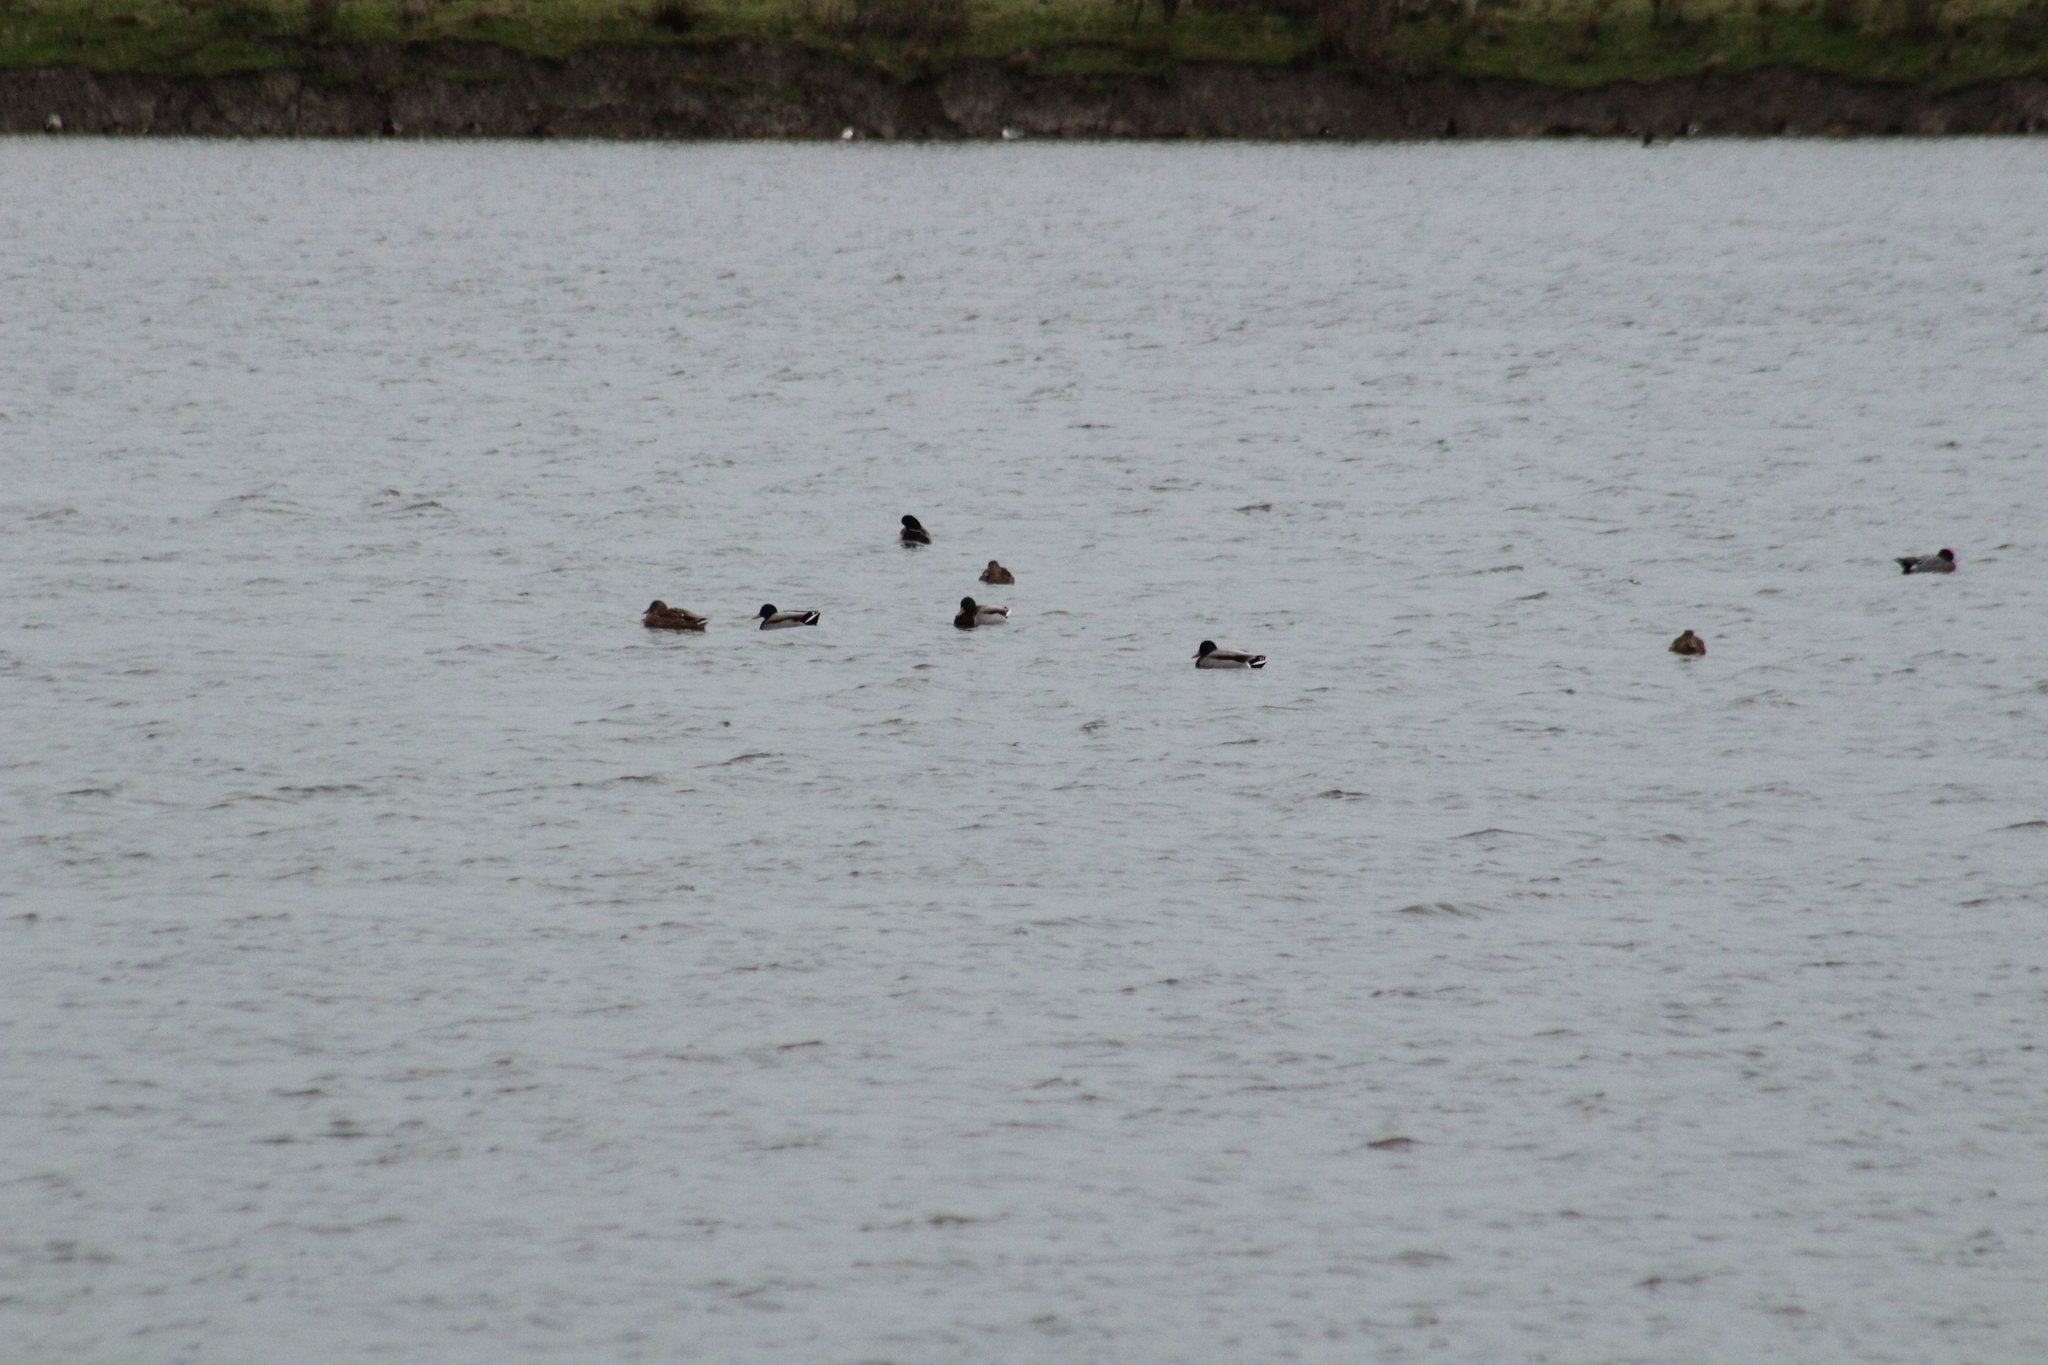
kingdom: Animalia
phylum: Chordata
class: Aves
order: Anseriformes
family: Anatidae
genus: Anas
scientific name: Anas platyrhynchos
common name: Mallard
